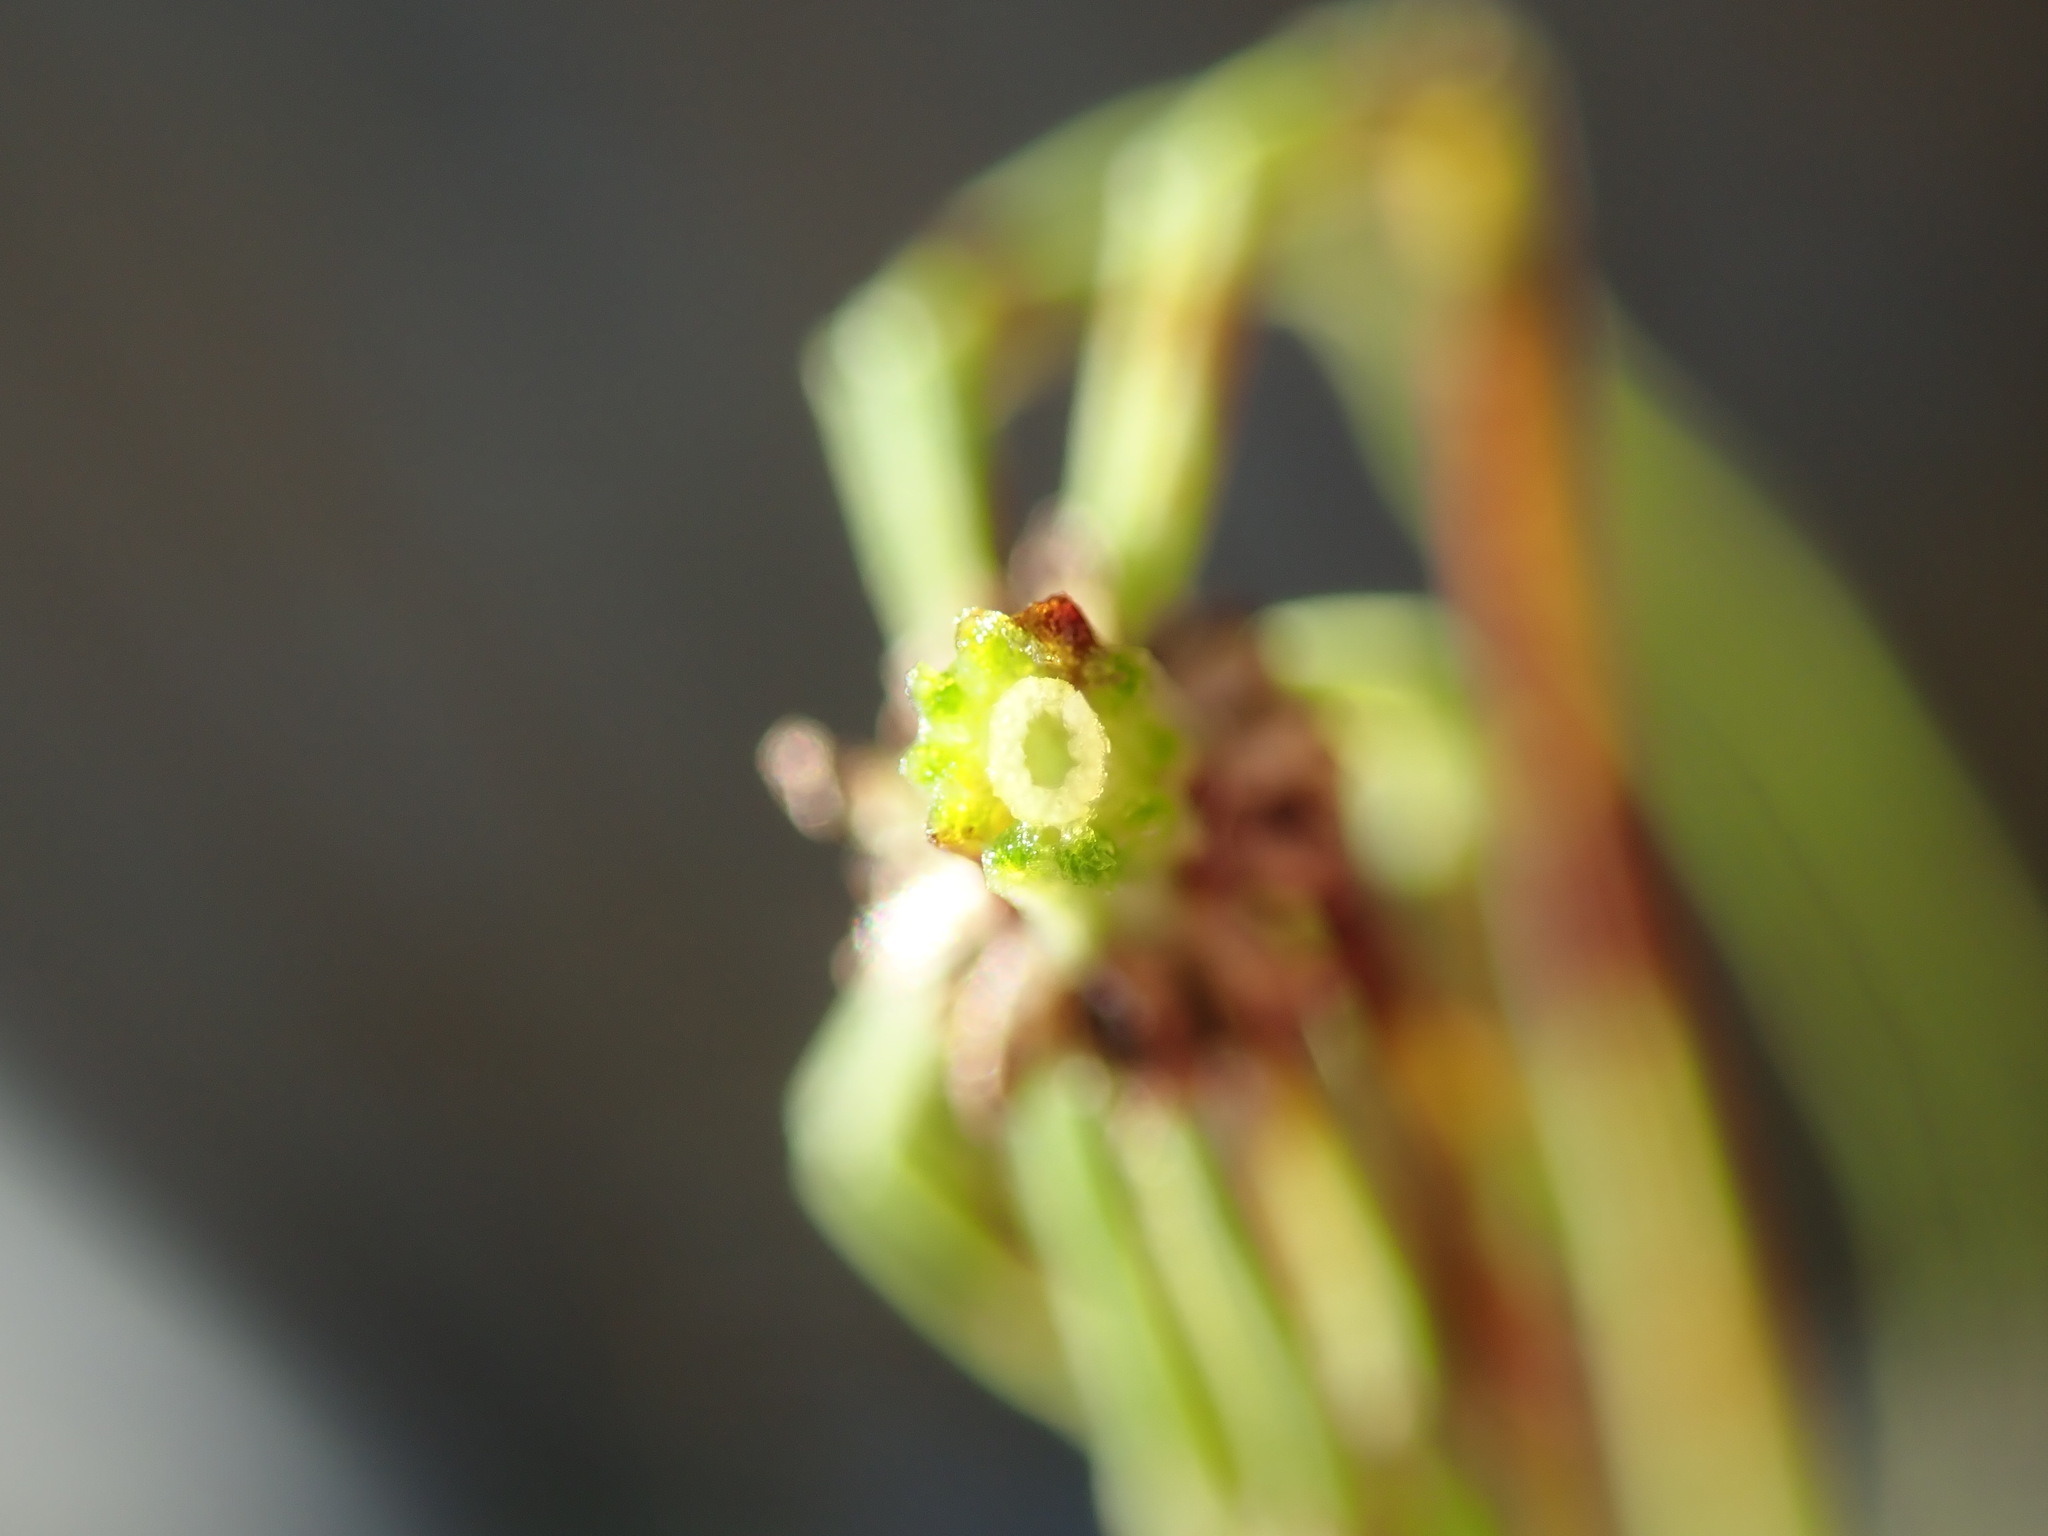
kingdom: Plantae
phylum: Tracheophyta
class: Polypodiopsida
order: Equisetales
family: Equisetaceae
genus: Equisetum
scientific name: Equisetum arvense
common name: Field horsetail
